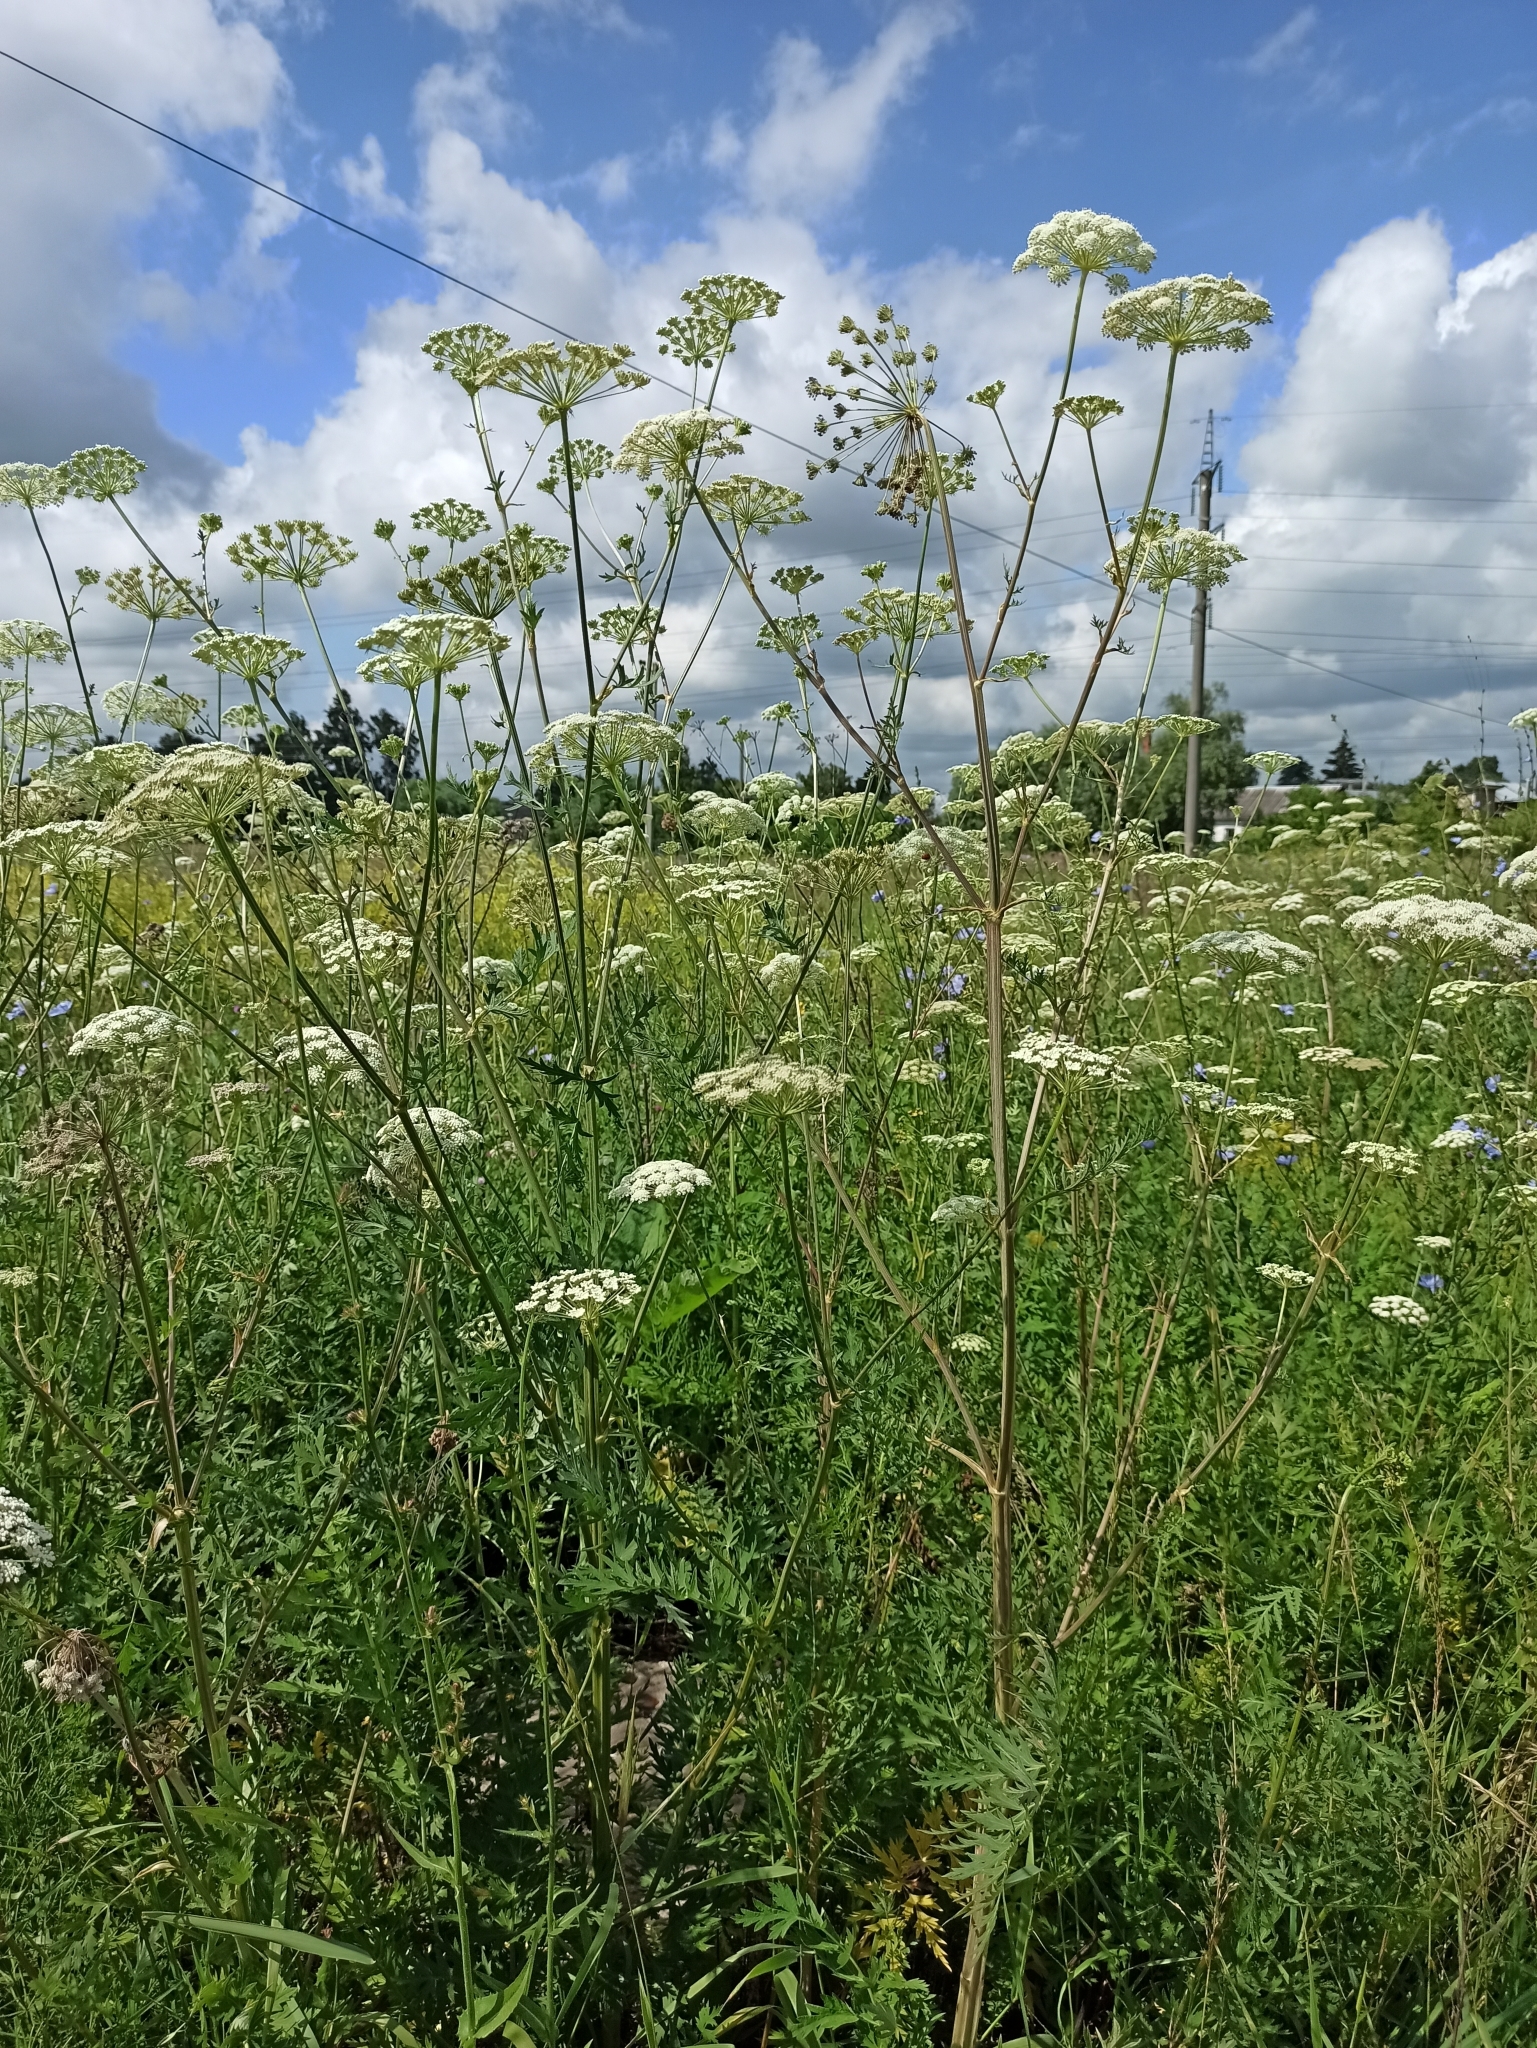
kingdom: Plantae
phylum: Tracheophyta
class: Magnoliopsida
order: Apiales
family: Apiaceae
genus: Seseli
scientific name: Seseli libanotis
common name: Mooncarrot
